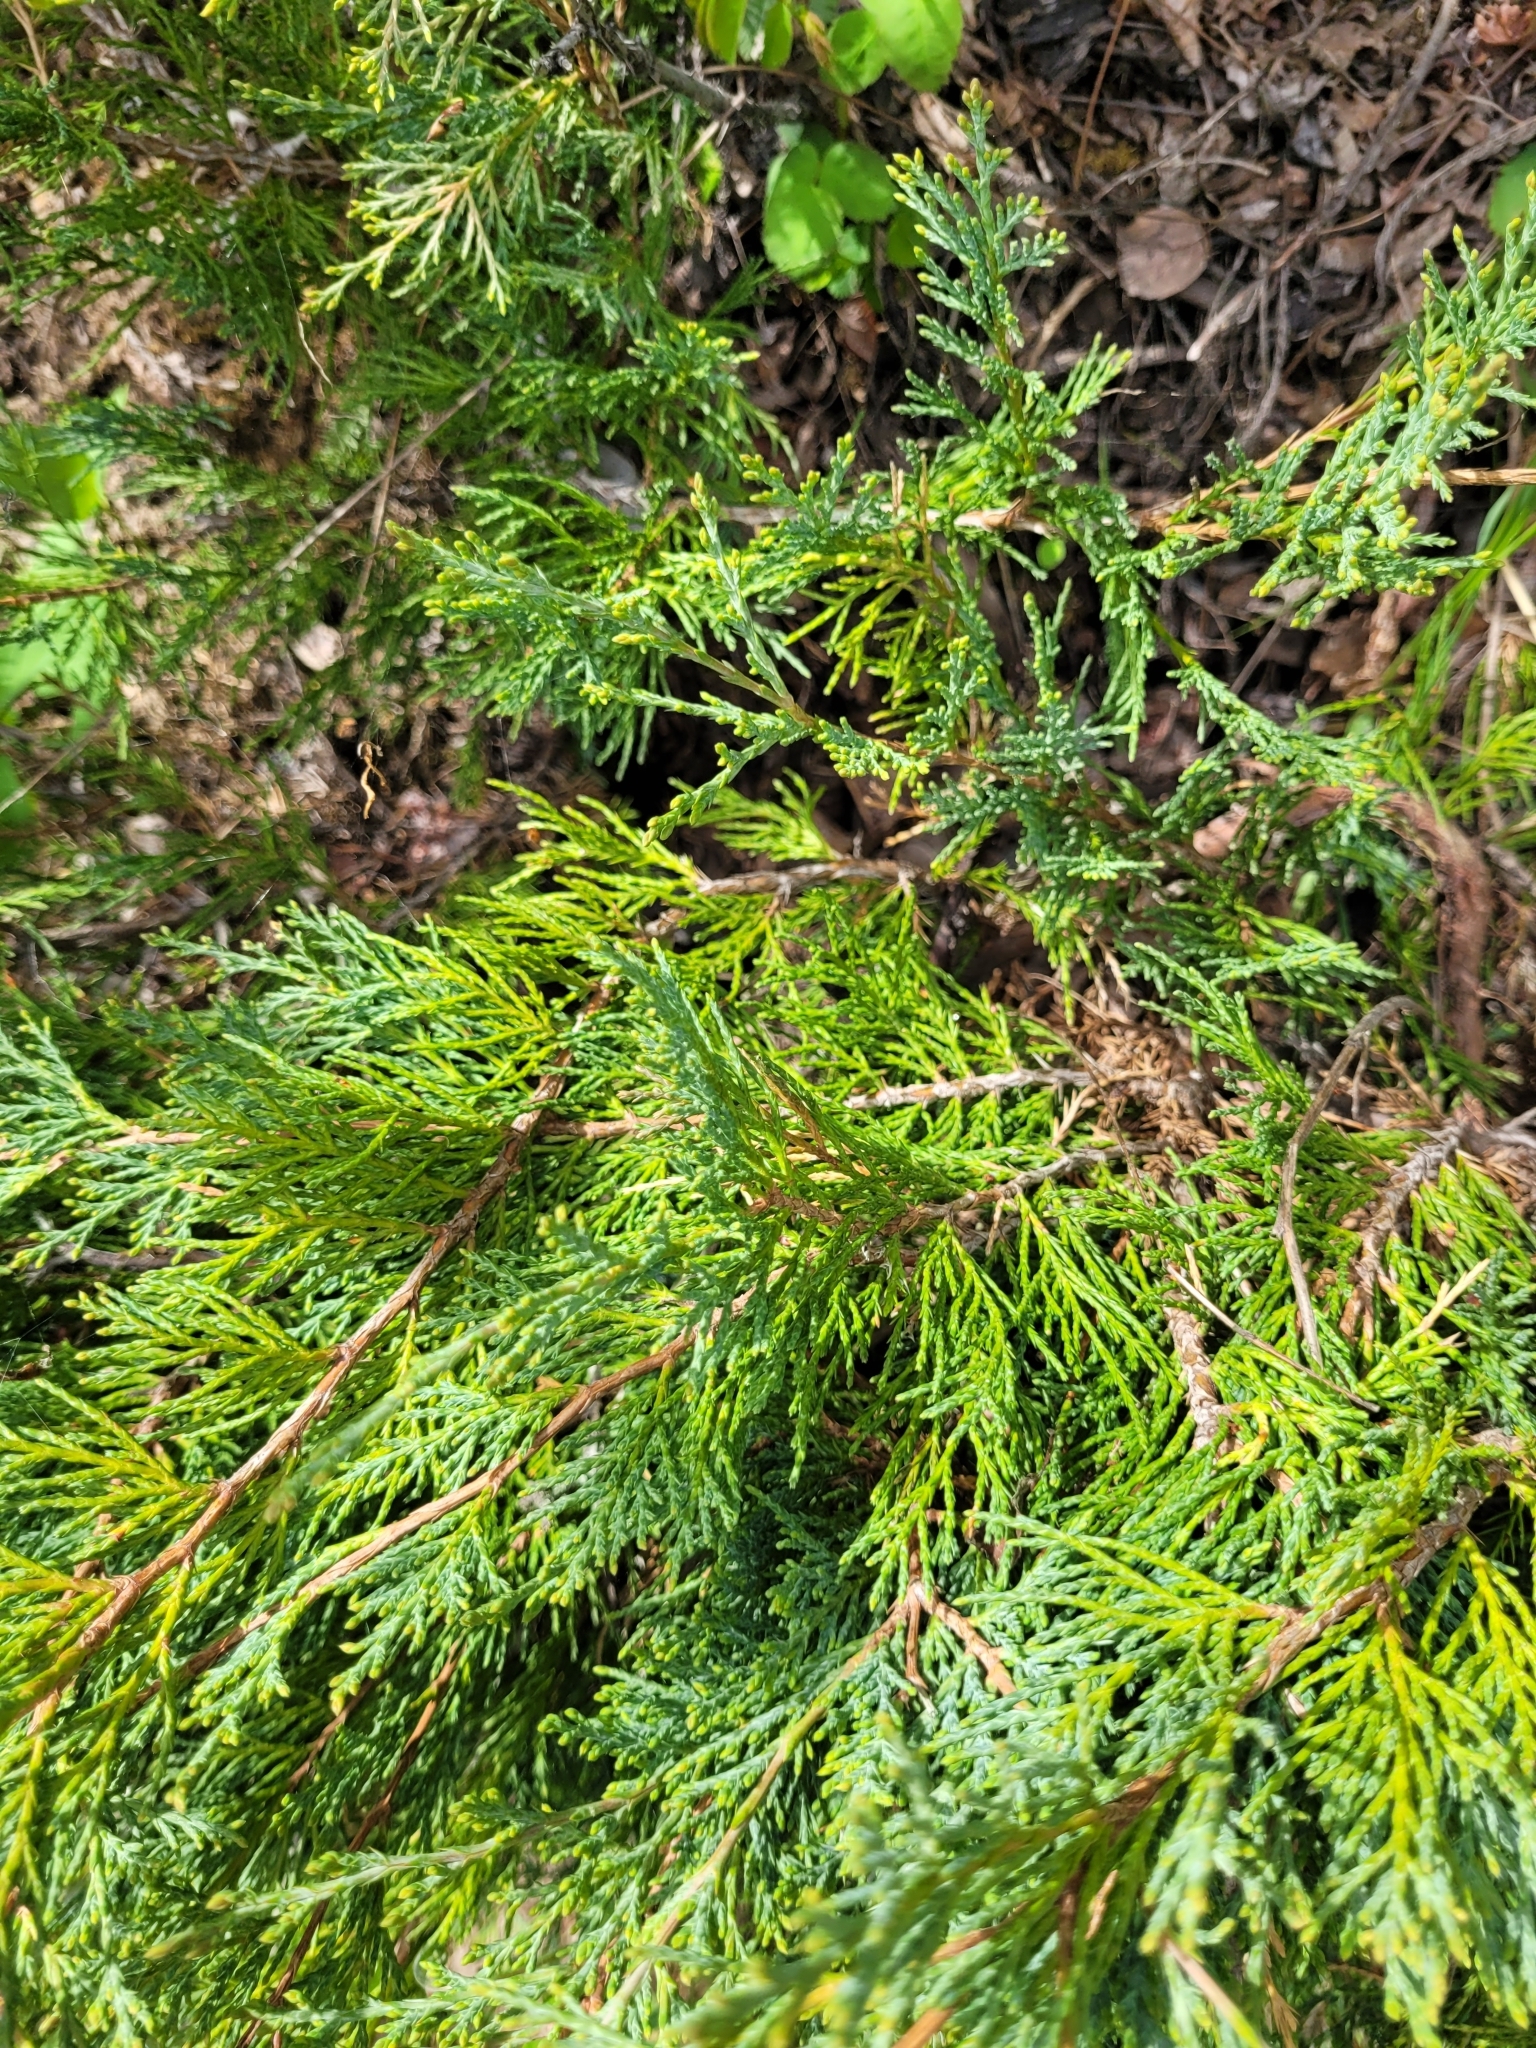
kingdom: Plantae
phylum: Tracheophyta
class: Pinopsida
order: Pinales
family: Cupressaceae
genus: Juniperus
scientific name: Juniperus scopulorum
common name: Rocky mountain juniper
